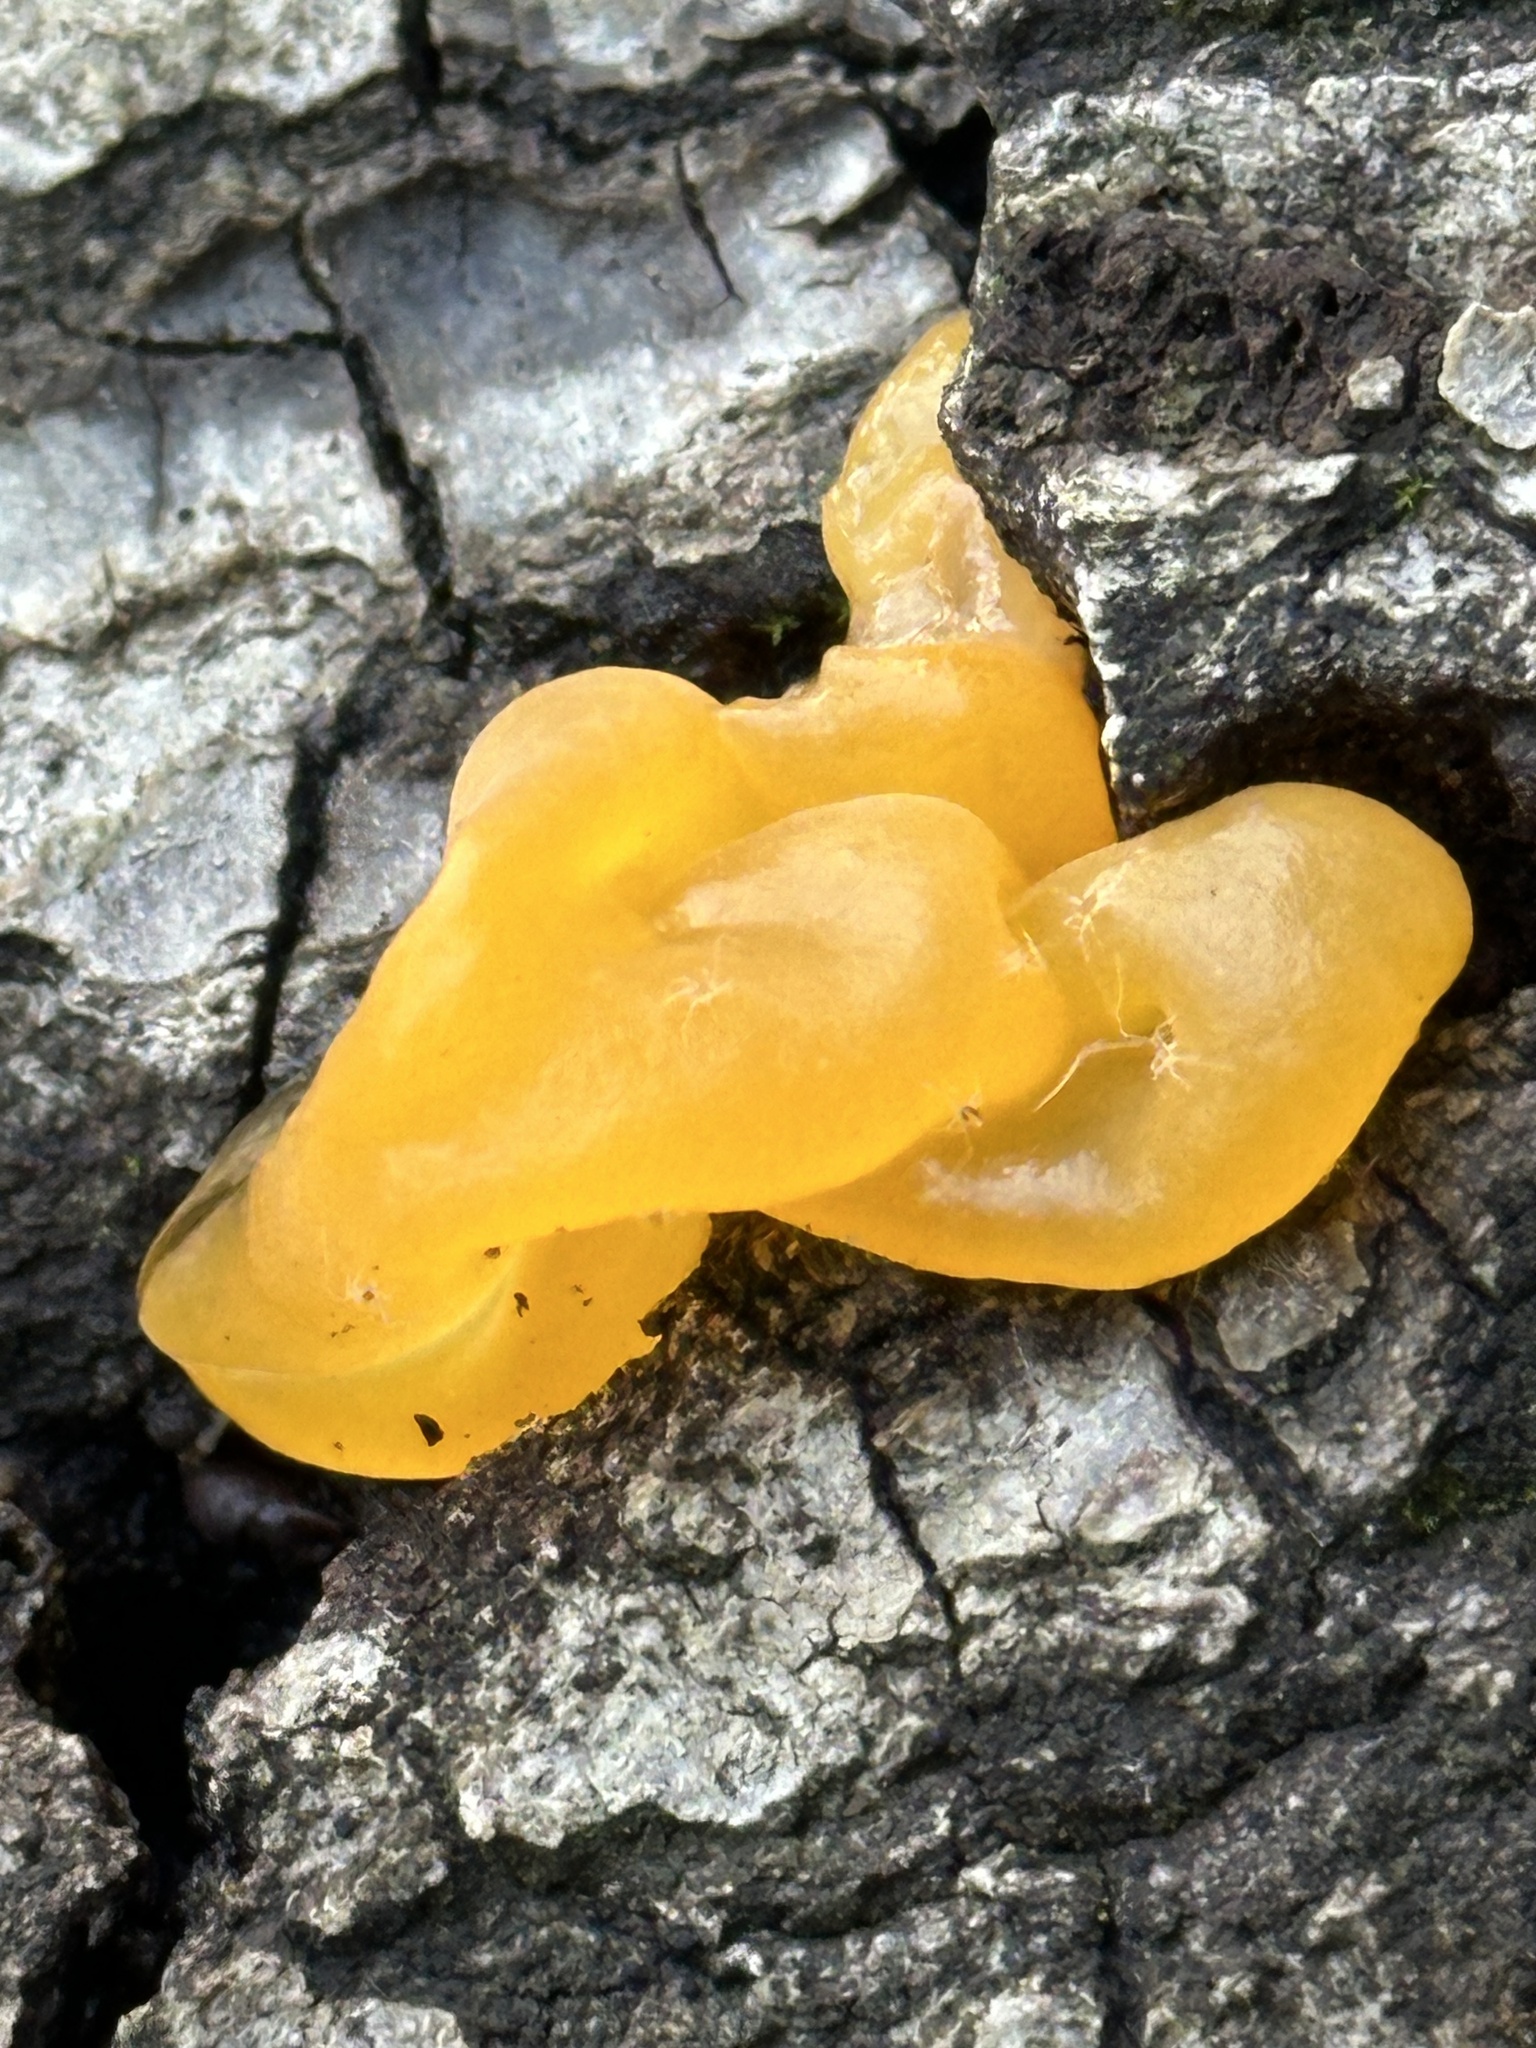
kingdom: Fungi
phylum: Basidiomycota
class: Tremellomycetes
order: Tremellales
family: Naemateliaceae
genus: Naematelia
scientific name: Naematelia aurantia
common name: Golden ear
